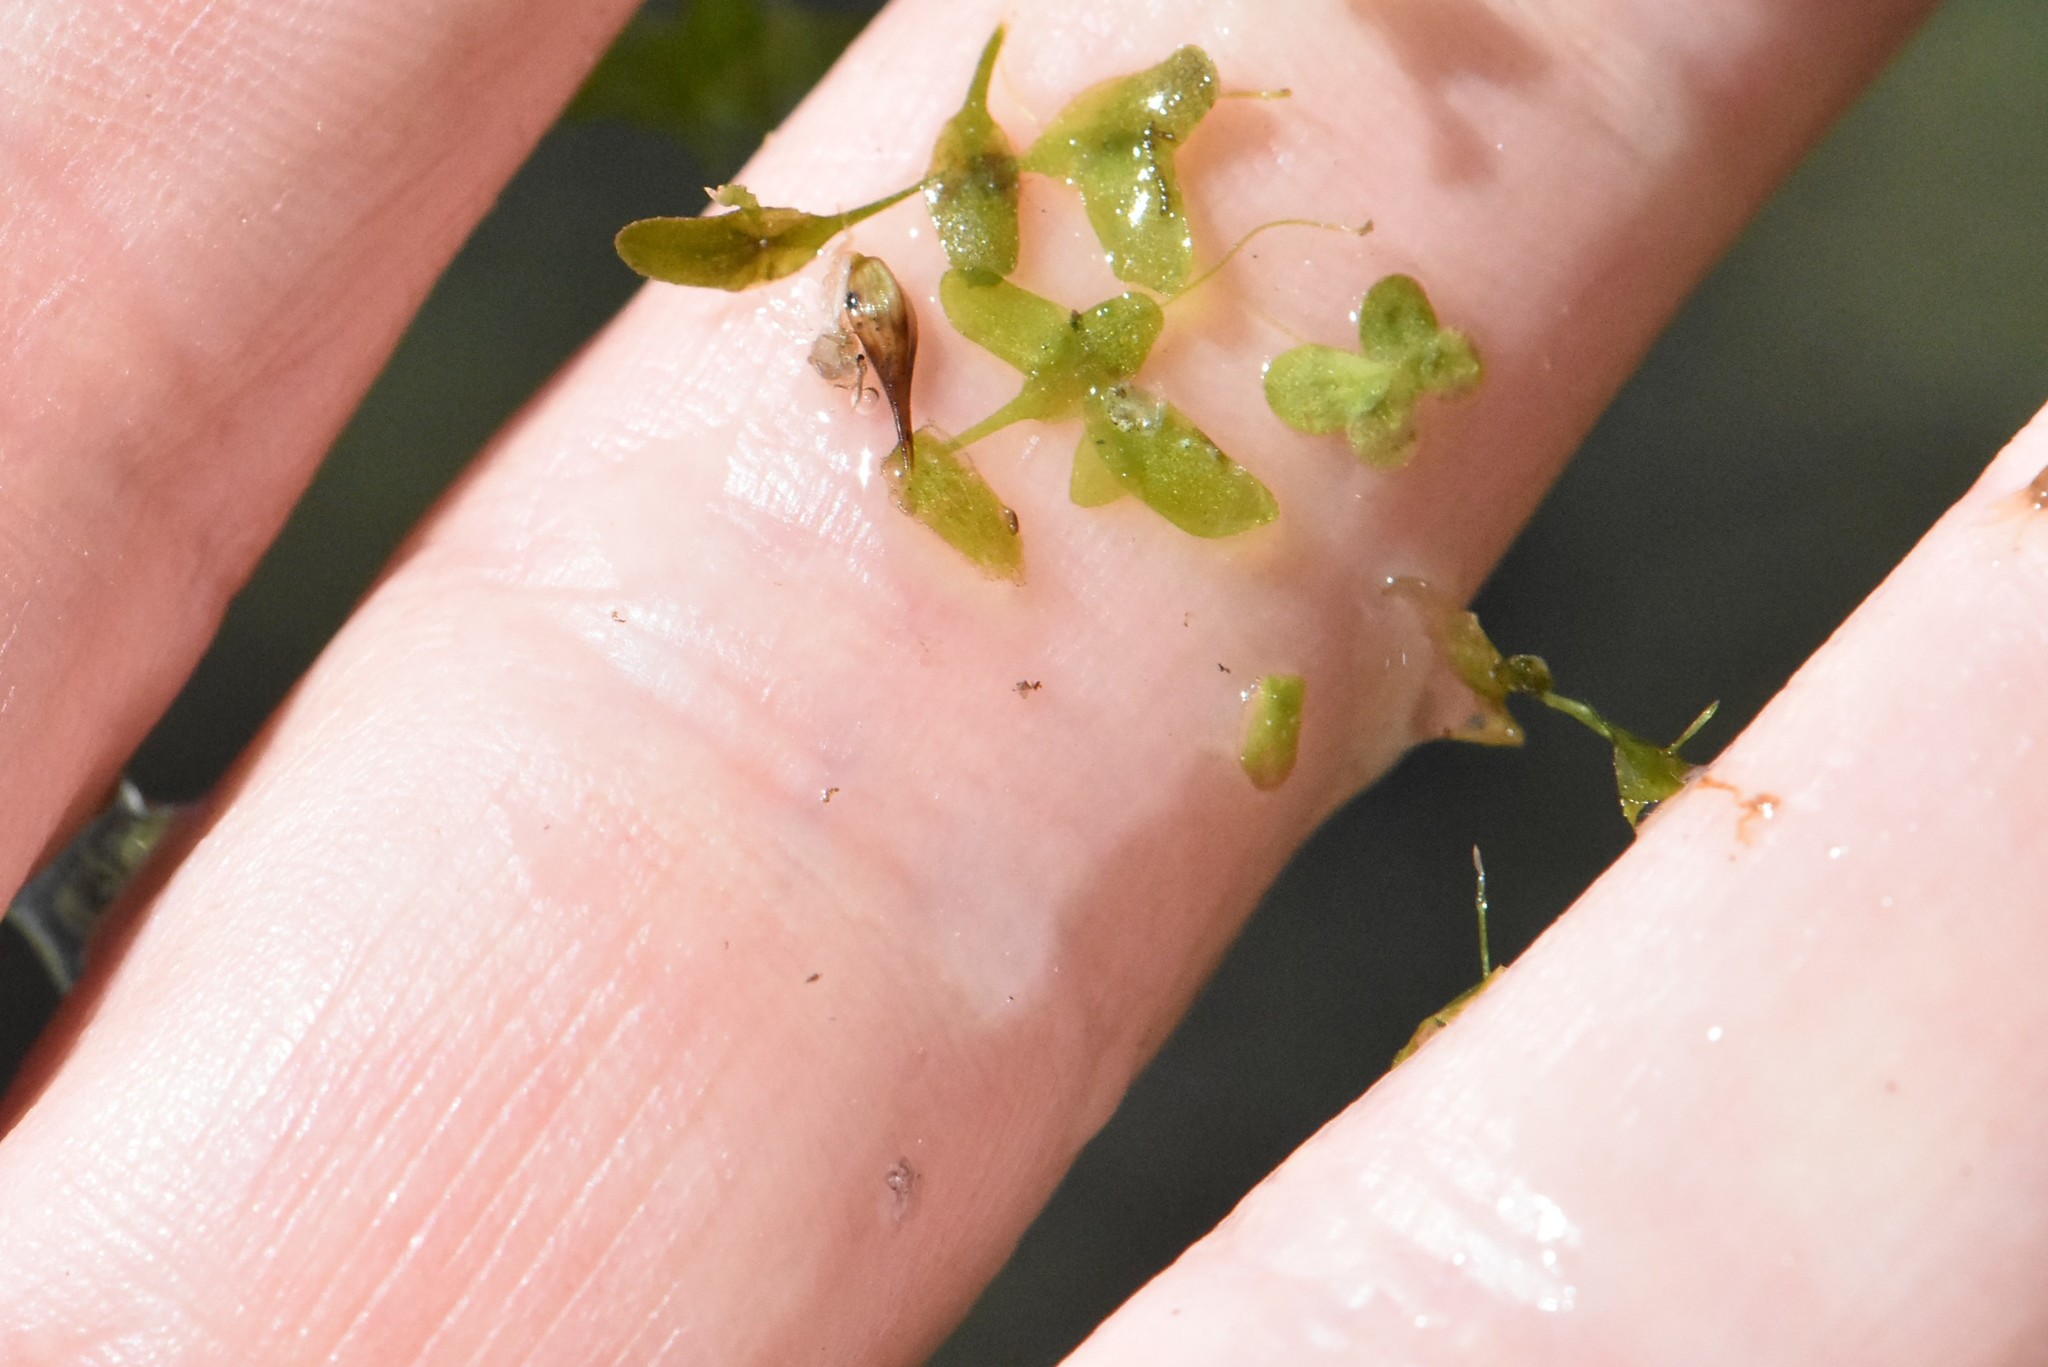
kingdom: Plantae
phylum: Tracheophyta
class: Liliopsida
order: Alismatales
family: Araceae
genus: Lemna
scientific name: Lemna trisulca
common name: Ivy-leaved duckweed
